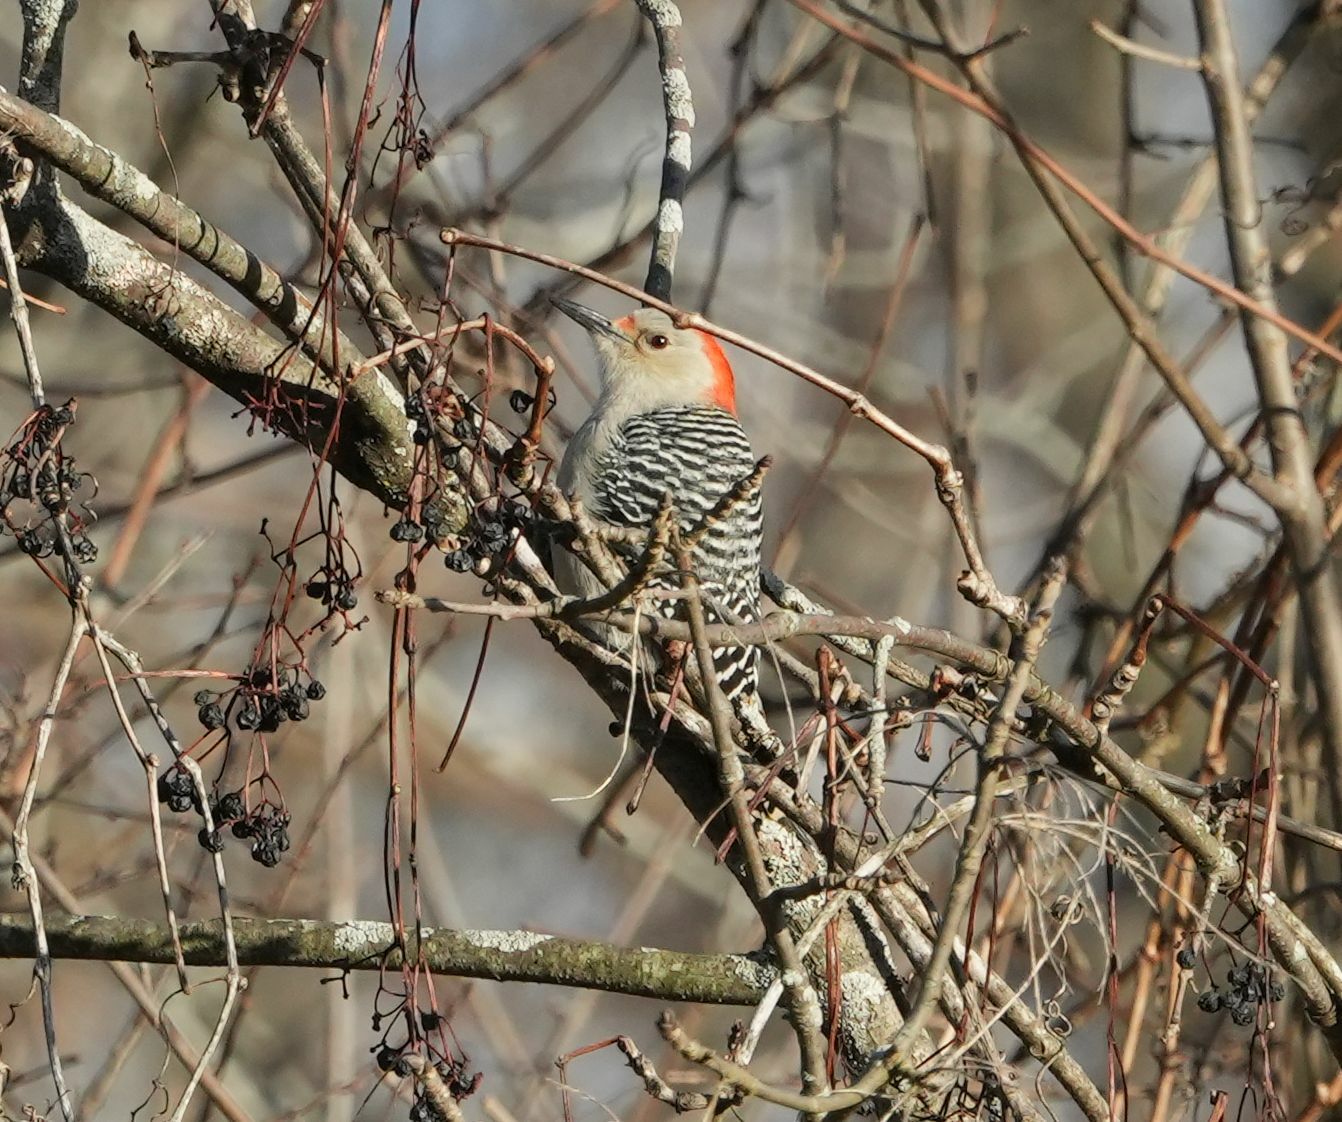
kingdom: Animalia
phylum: Chordata
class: Aves
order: Piciformes
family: Picidae
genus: Melanerpes
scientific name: Melanerpes carolinus
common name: Red-bellied woodpecker
